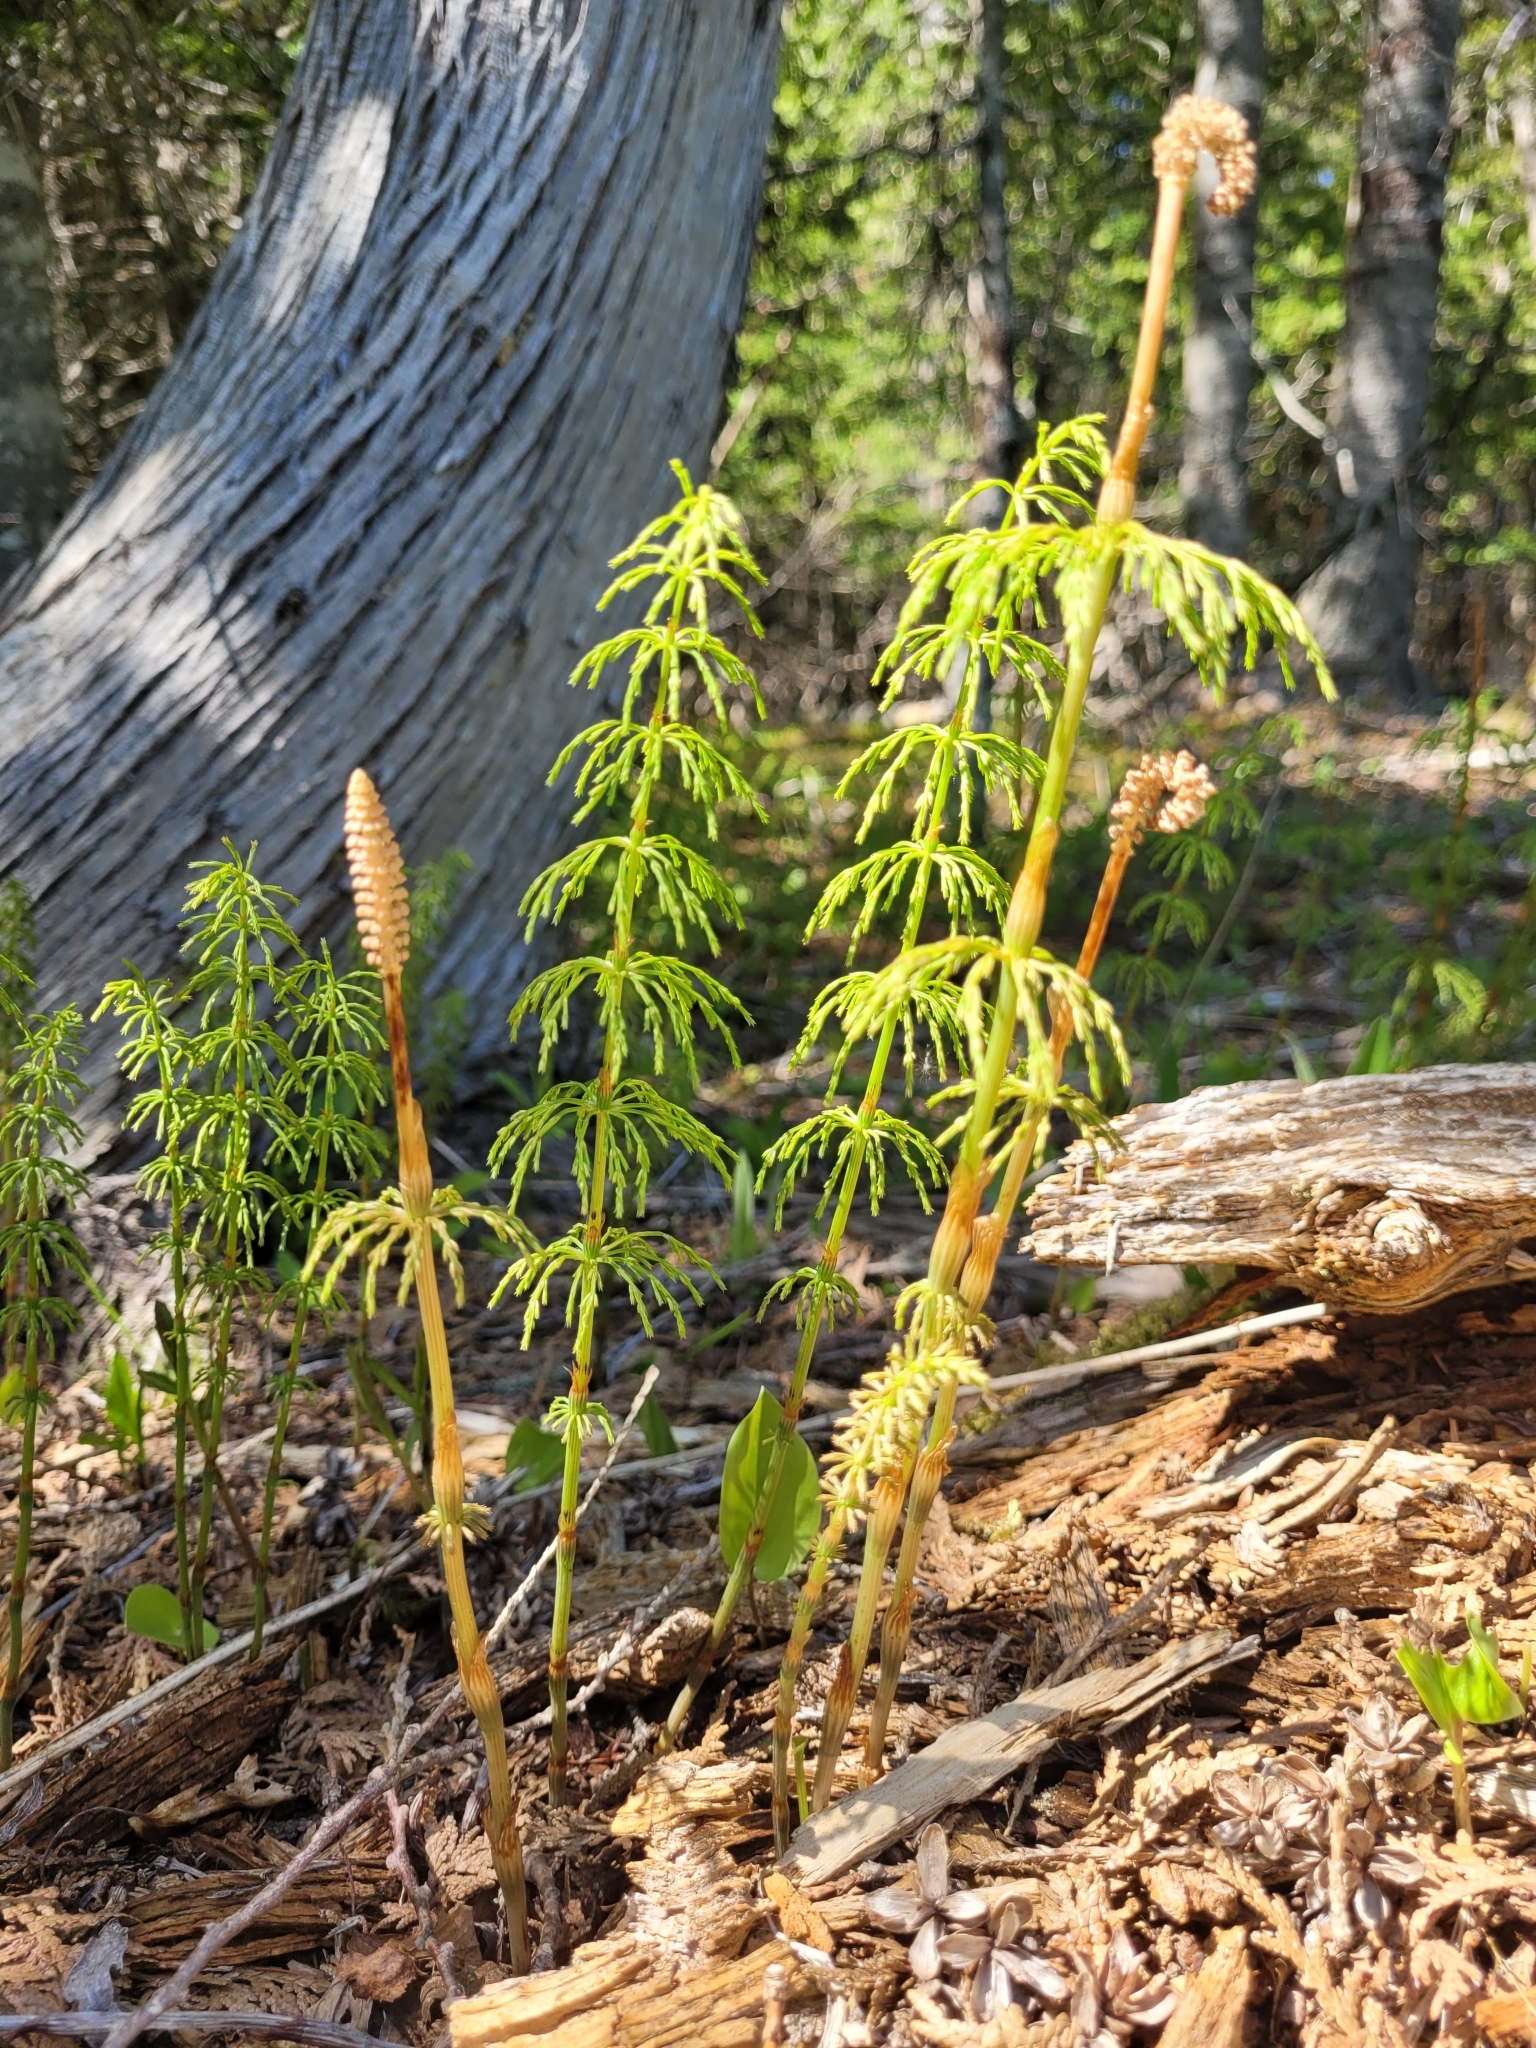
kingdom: Plantae
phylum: Tracheophyta
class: Polypodiopsida
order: Equisetales
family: Equisetaceae
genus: Equisetum
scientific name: Equisetum sylvaticum
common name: Wood horsetail
